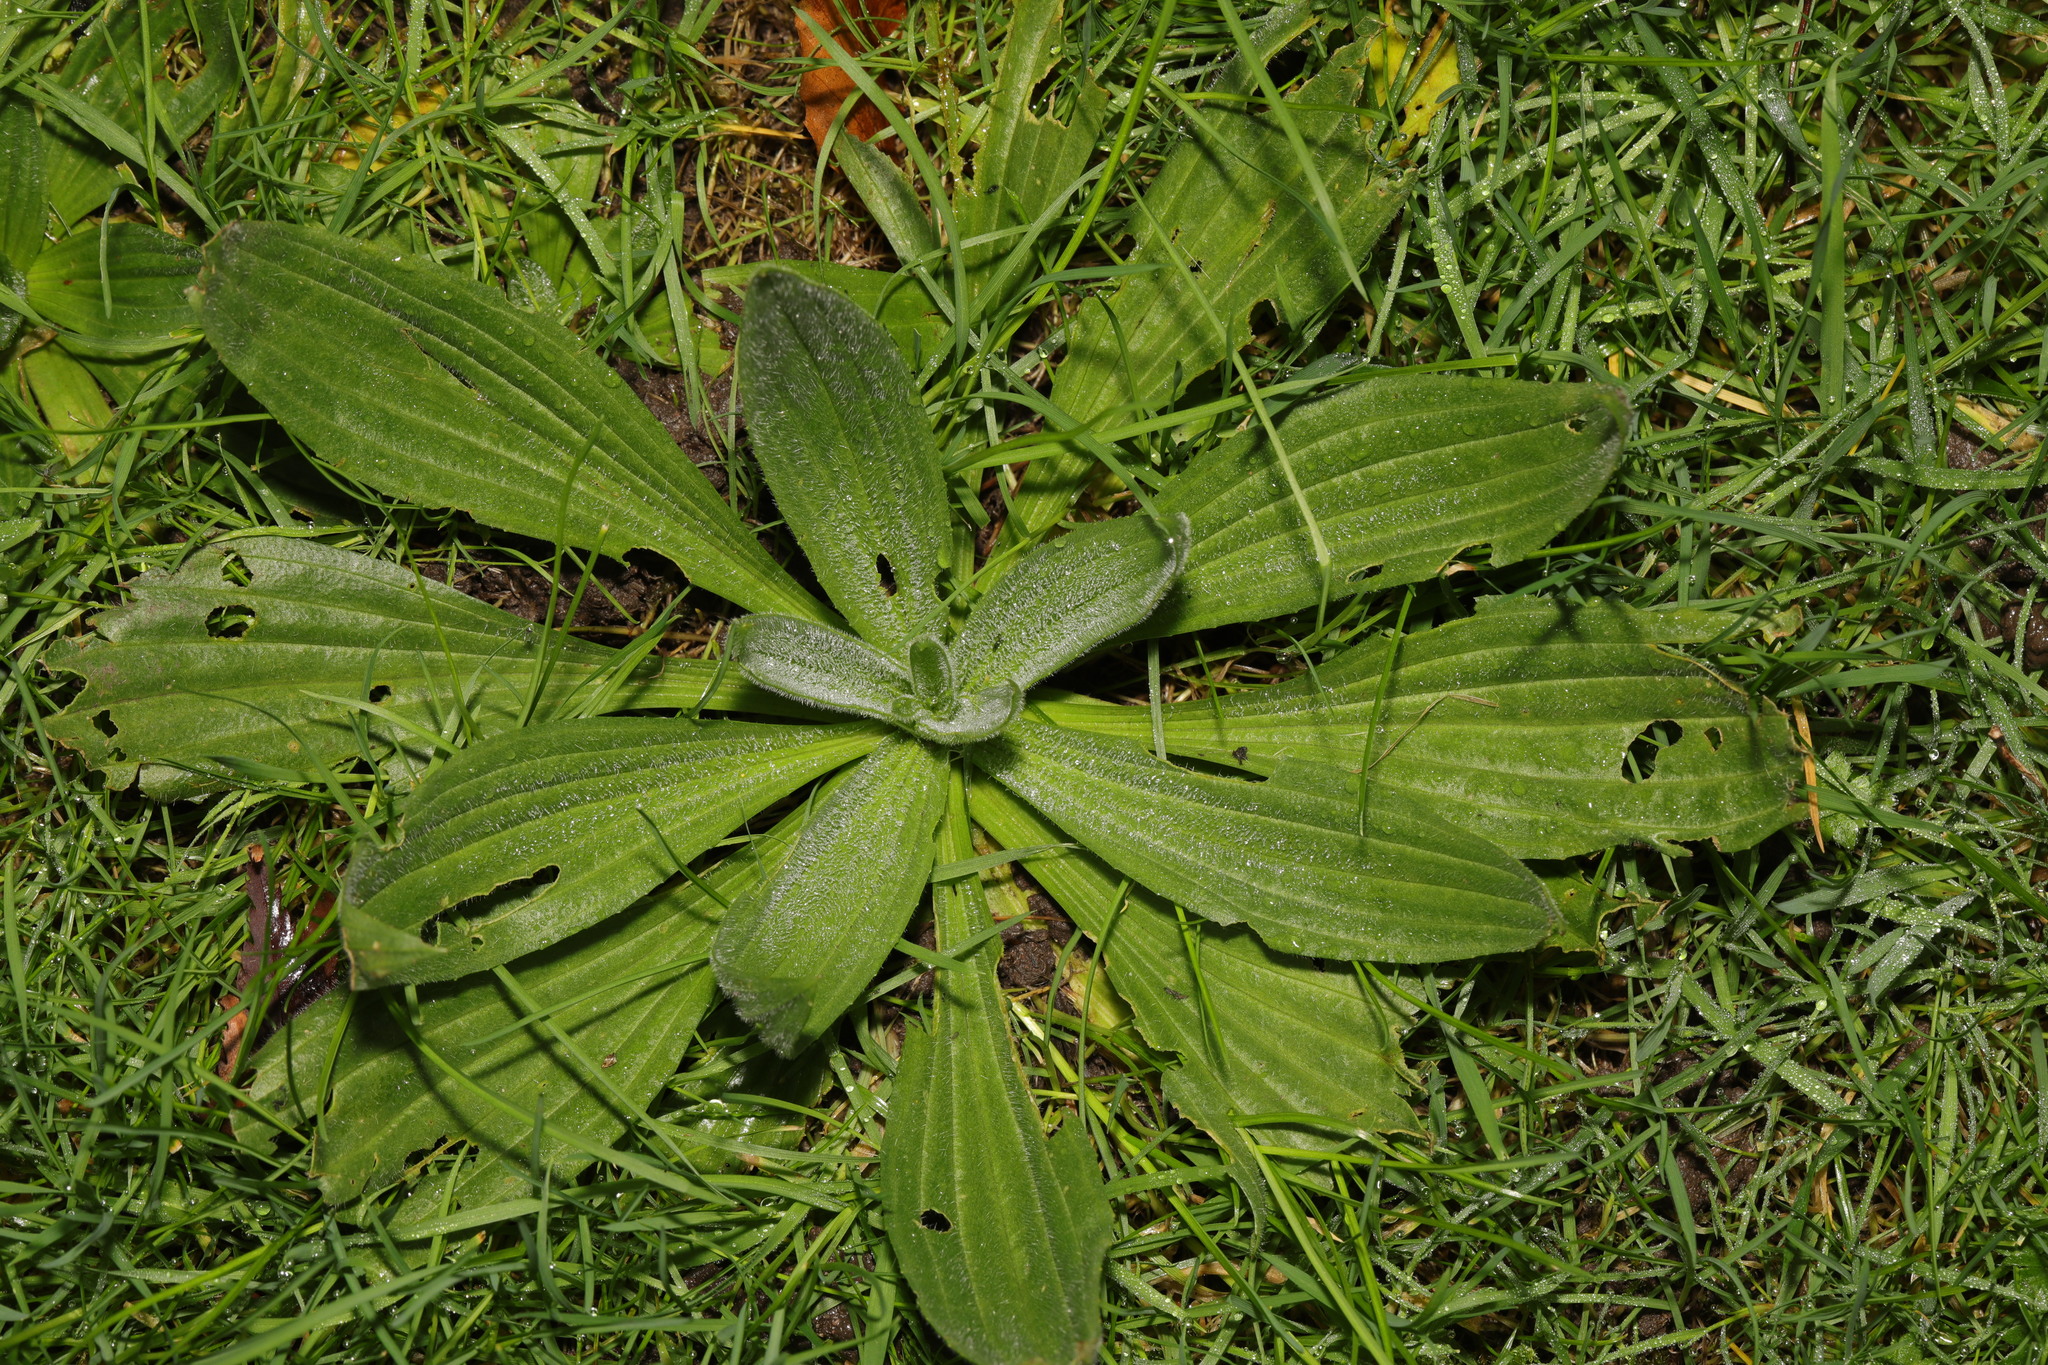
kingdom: Plantae
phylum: Tracheophyta
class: Magnoliopsida
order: Lamiales
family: Plantaginaceae
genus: Plantago
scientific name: Plantago lanceolata
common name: Ribwort plantain
